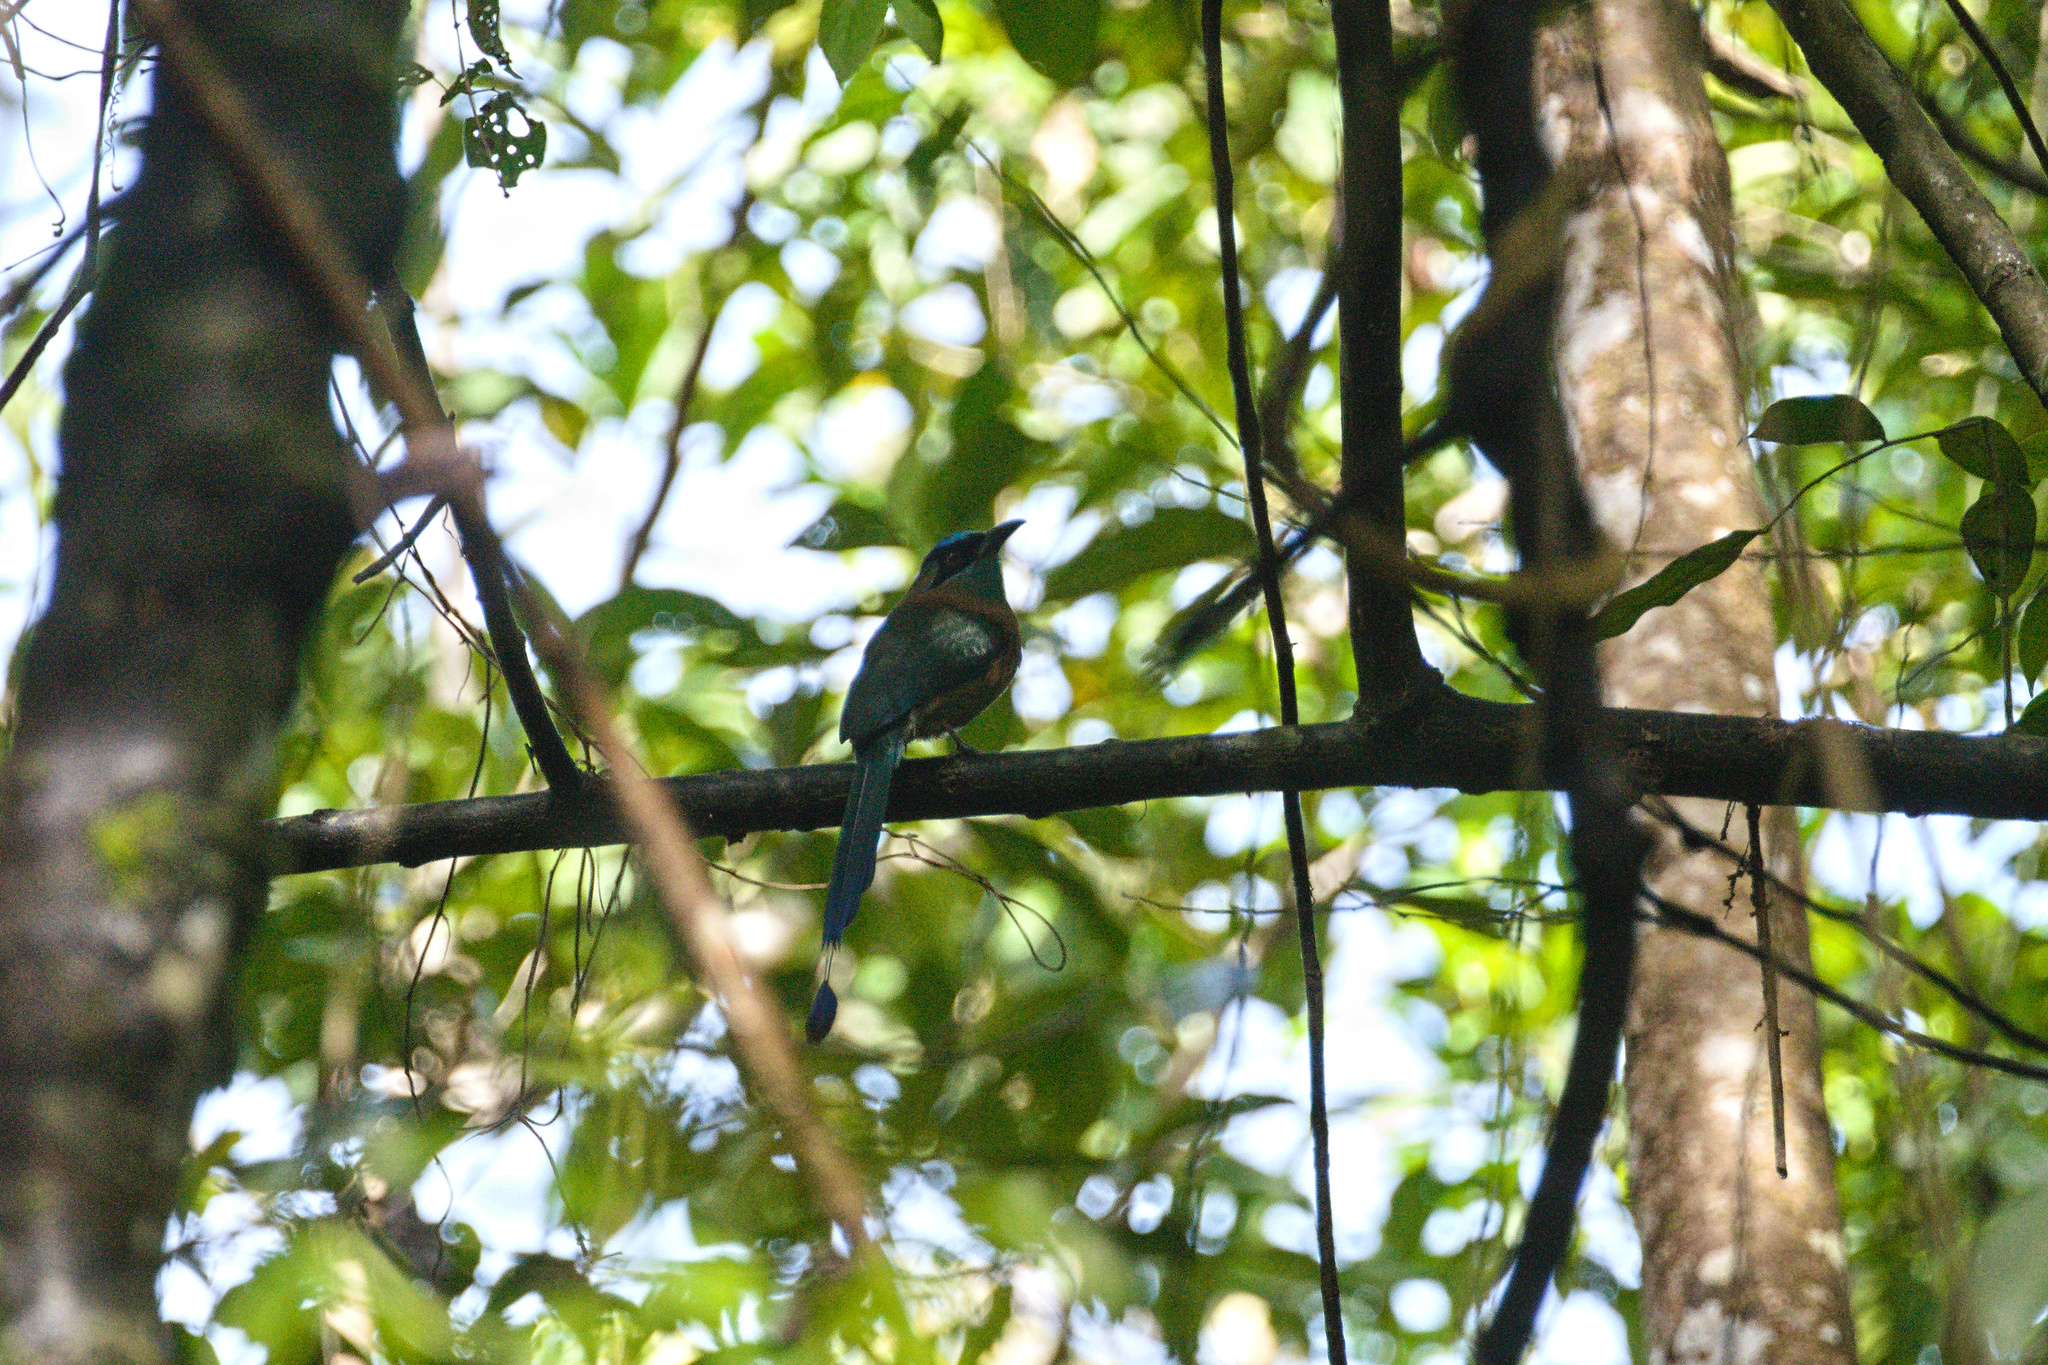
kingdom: Animalia
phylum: Chordata
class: Aves
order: Coraciiformes
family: Momotidae
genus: Momotus
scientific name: Momotus lessonii
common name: Lesson's motmot
